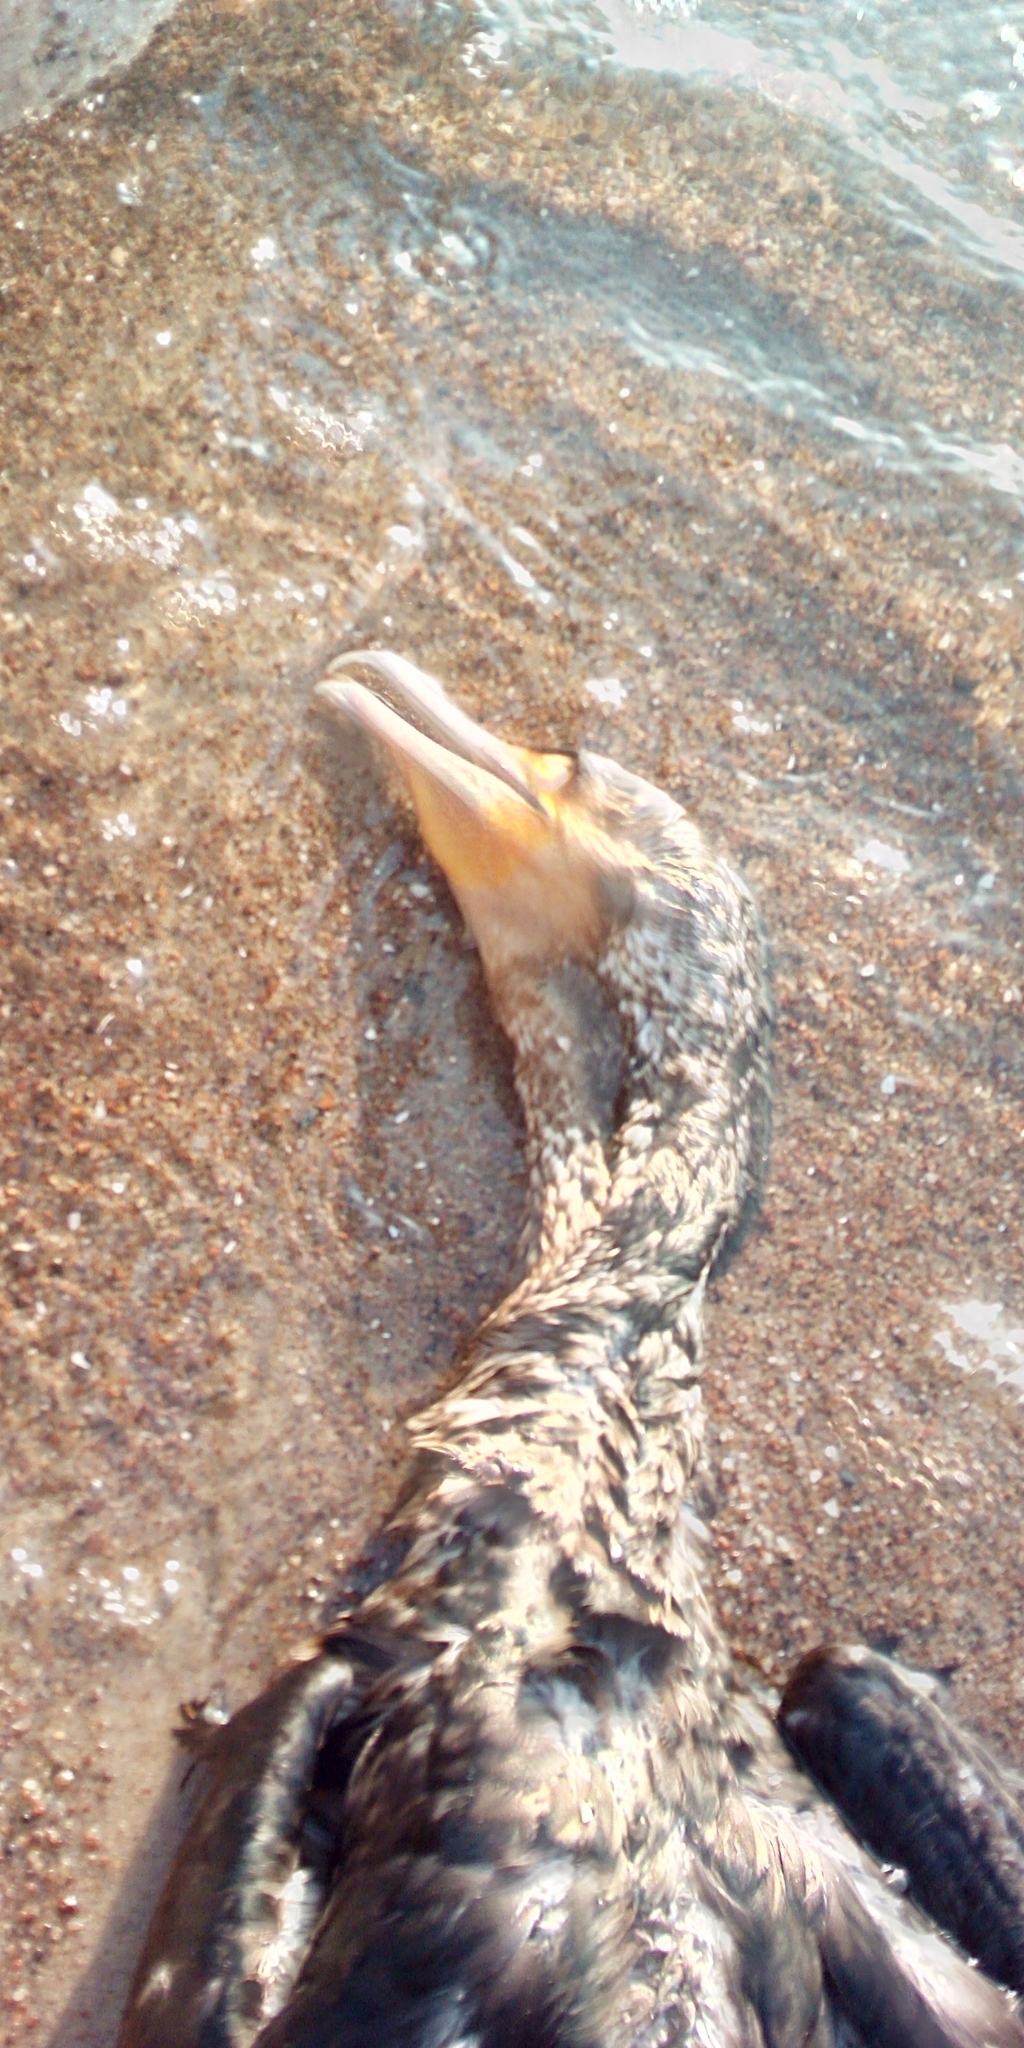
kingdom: Animalia
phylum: Chordata
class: Aves
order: Suliformes
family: Phalacrocoracidae
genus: Phalacrocorax
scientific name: Phalacrocorax carbo
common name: Great cormorant
